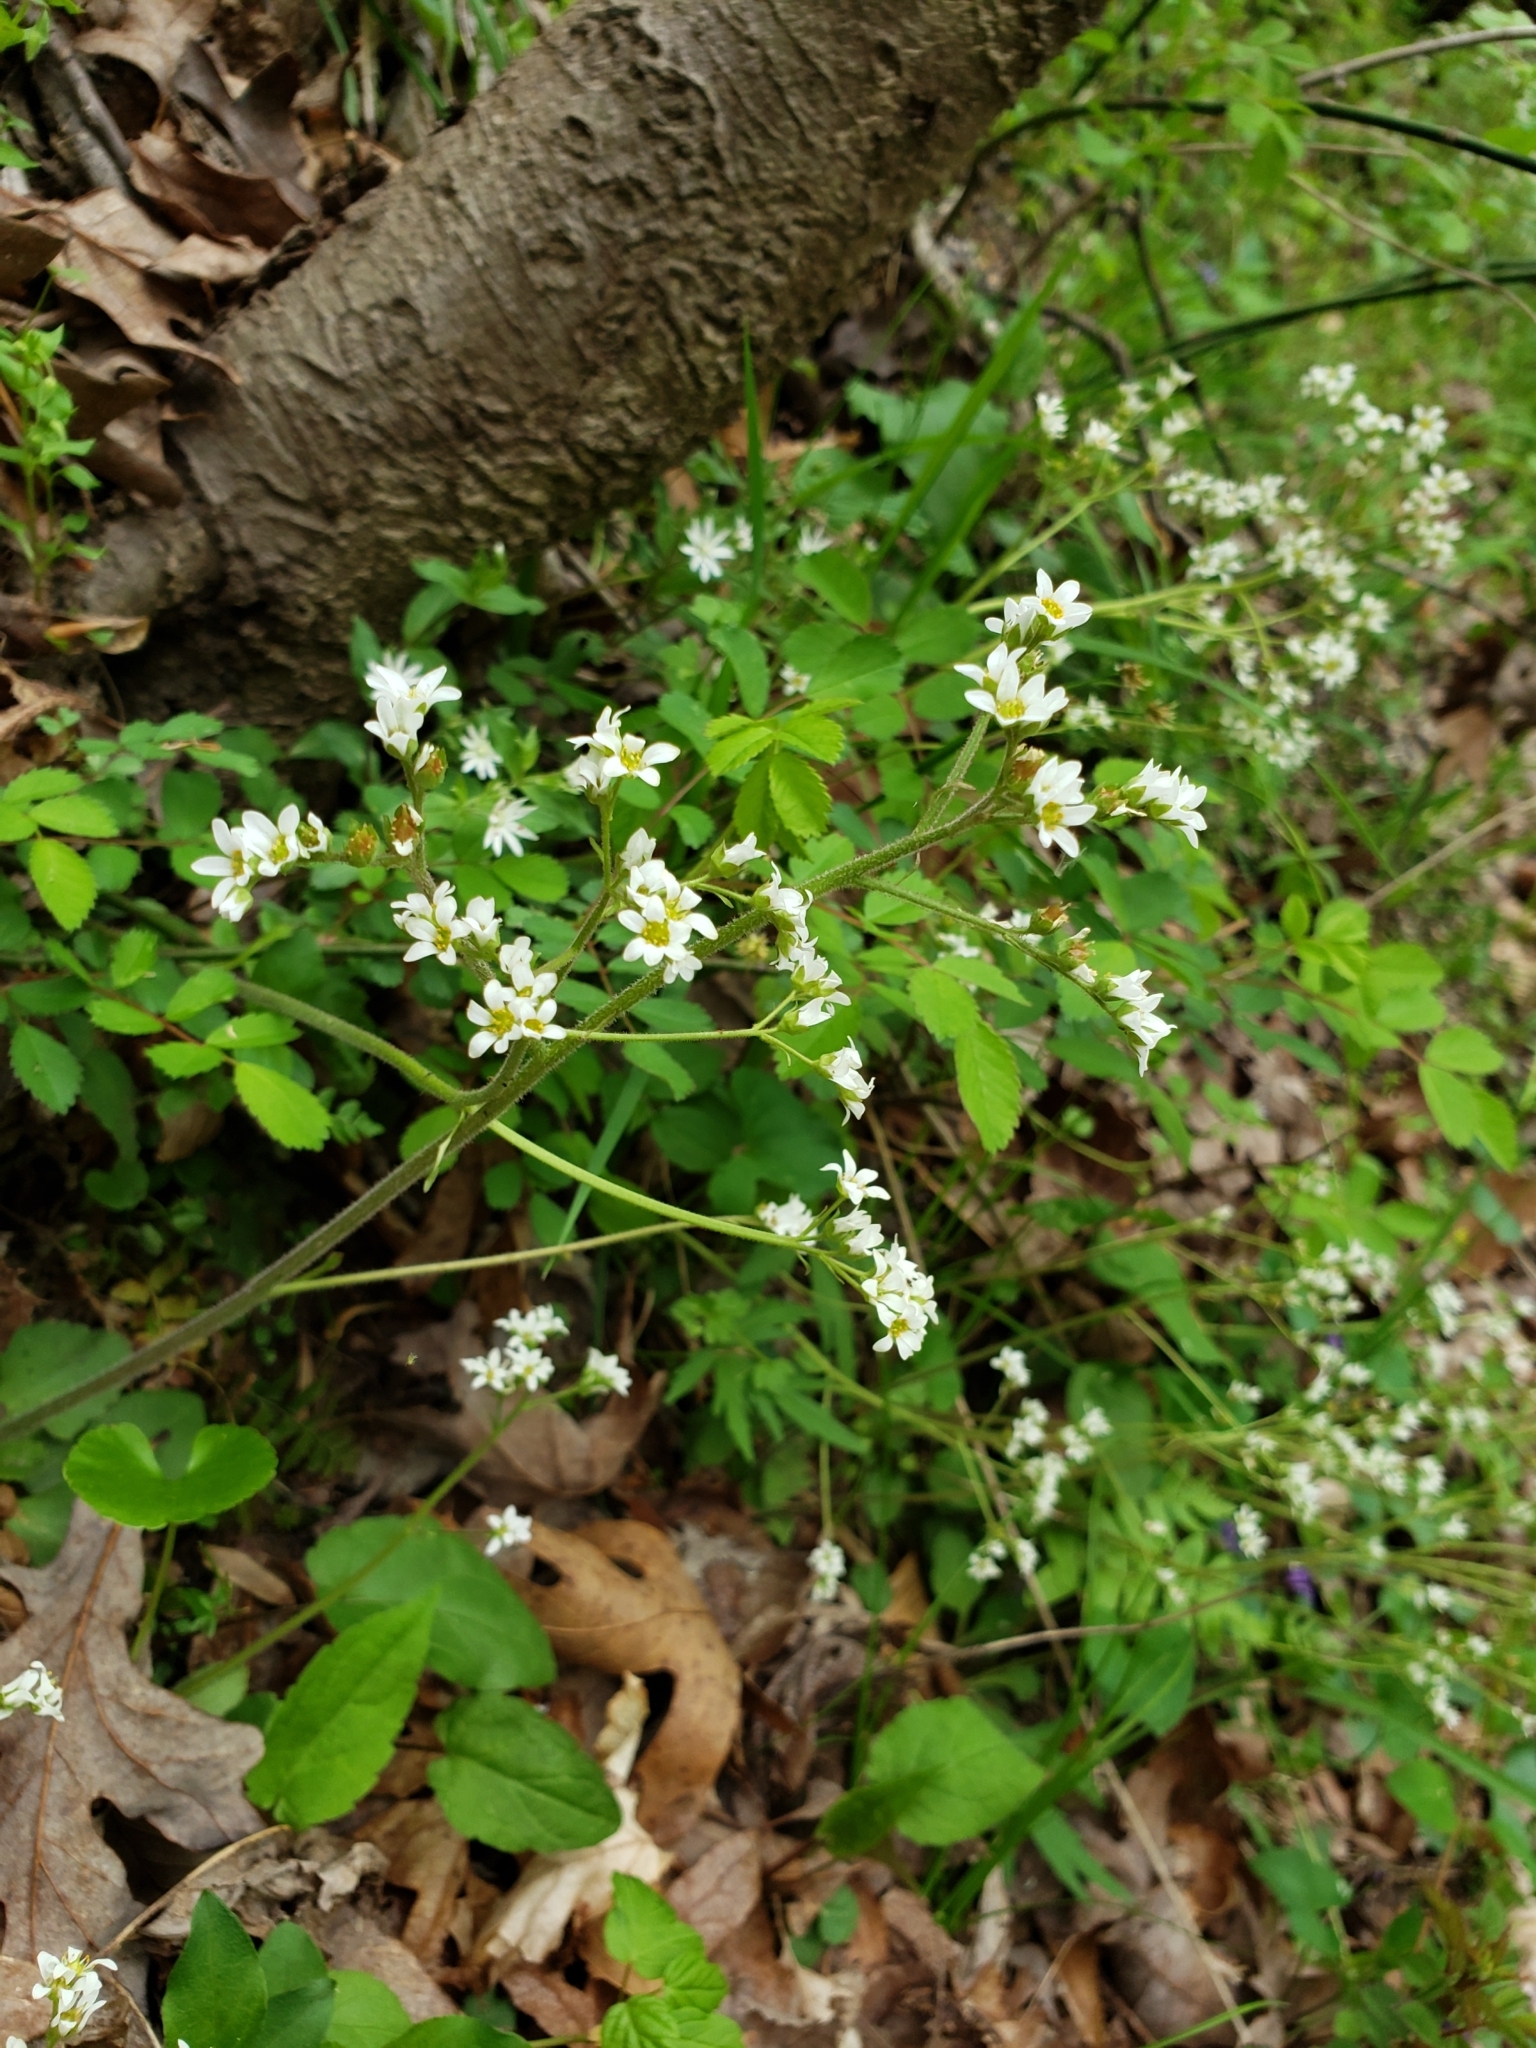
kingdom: Plantae
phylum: Tracheophyta
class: Magnoliopsida
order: Saxifragales
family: Saxifragaceae
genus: Micranthes
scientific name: Micranthes virginiensis
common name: Early saxifrage
